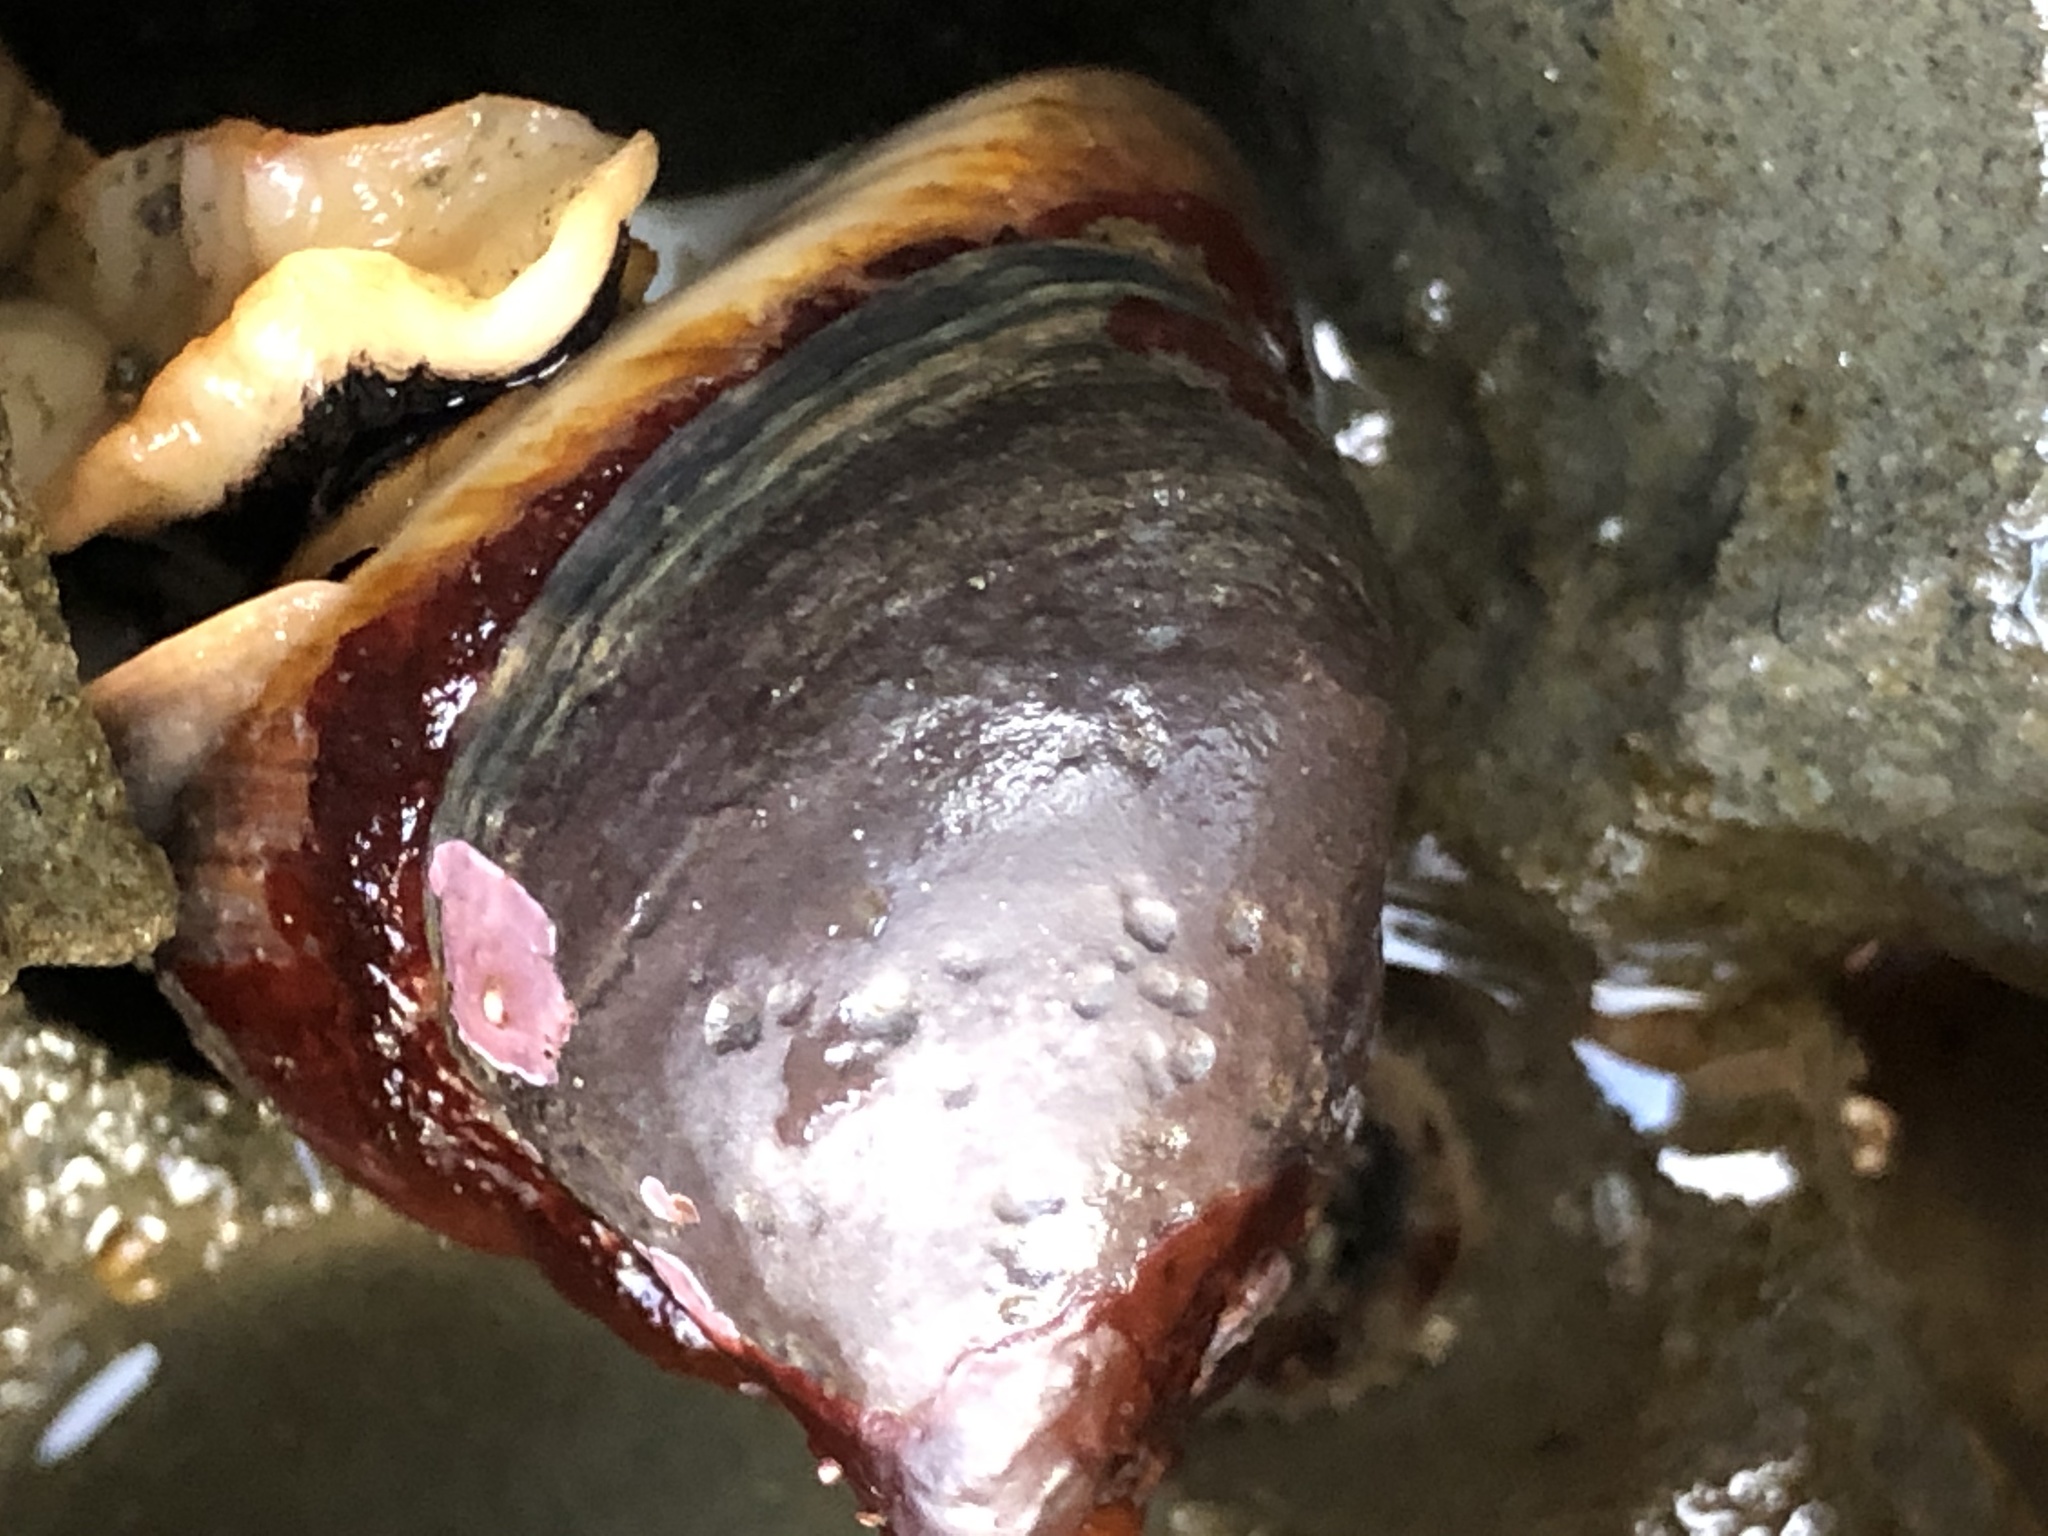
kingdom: Animalia
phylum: Mollusca
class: Gastropoda
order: Trochida
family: Tegulidae
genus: Tegula
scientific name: Tegula brunnea
